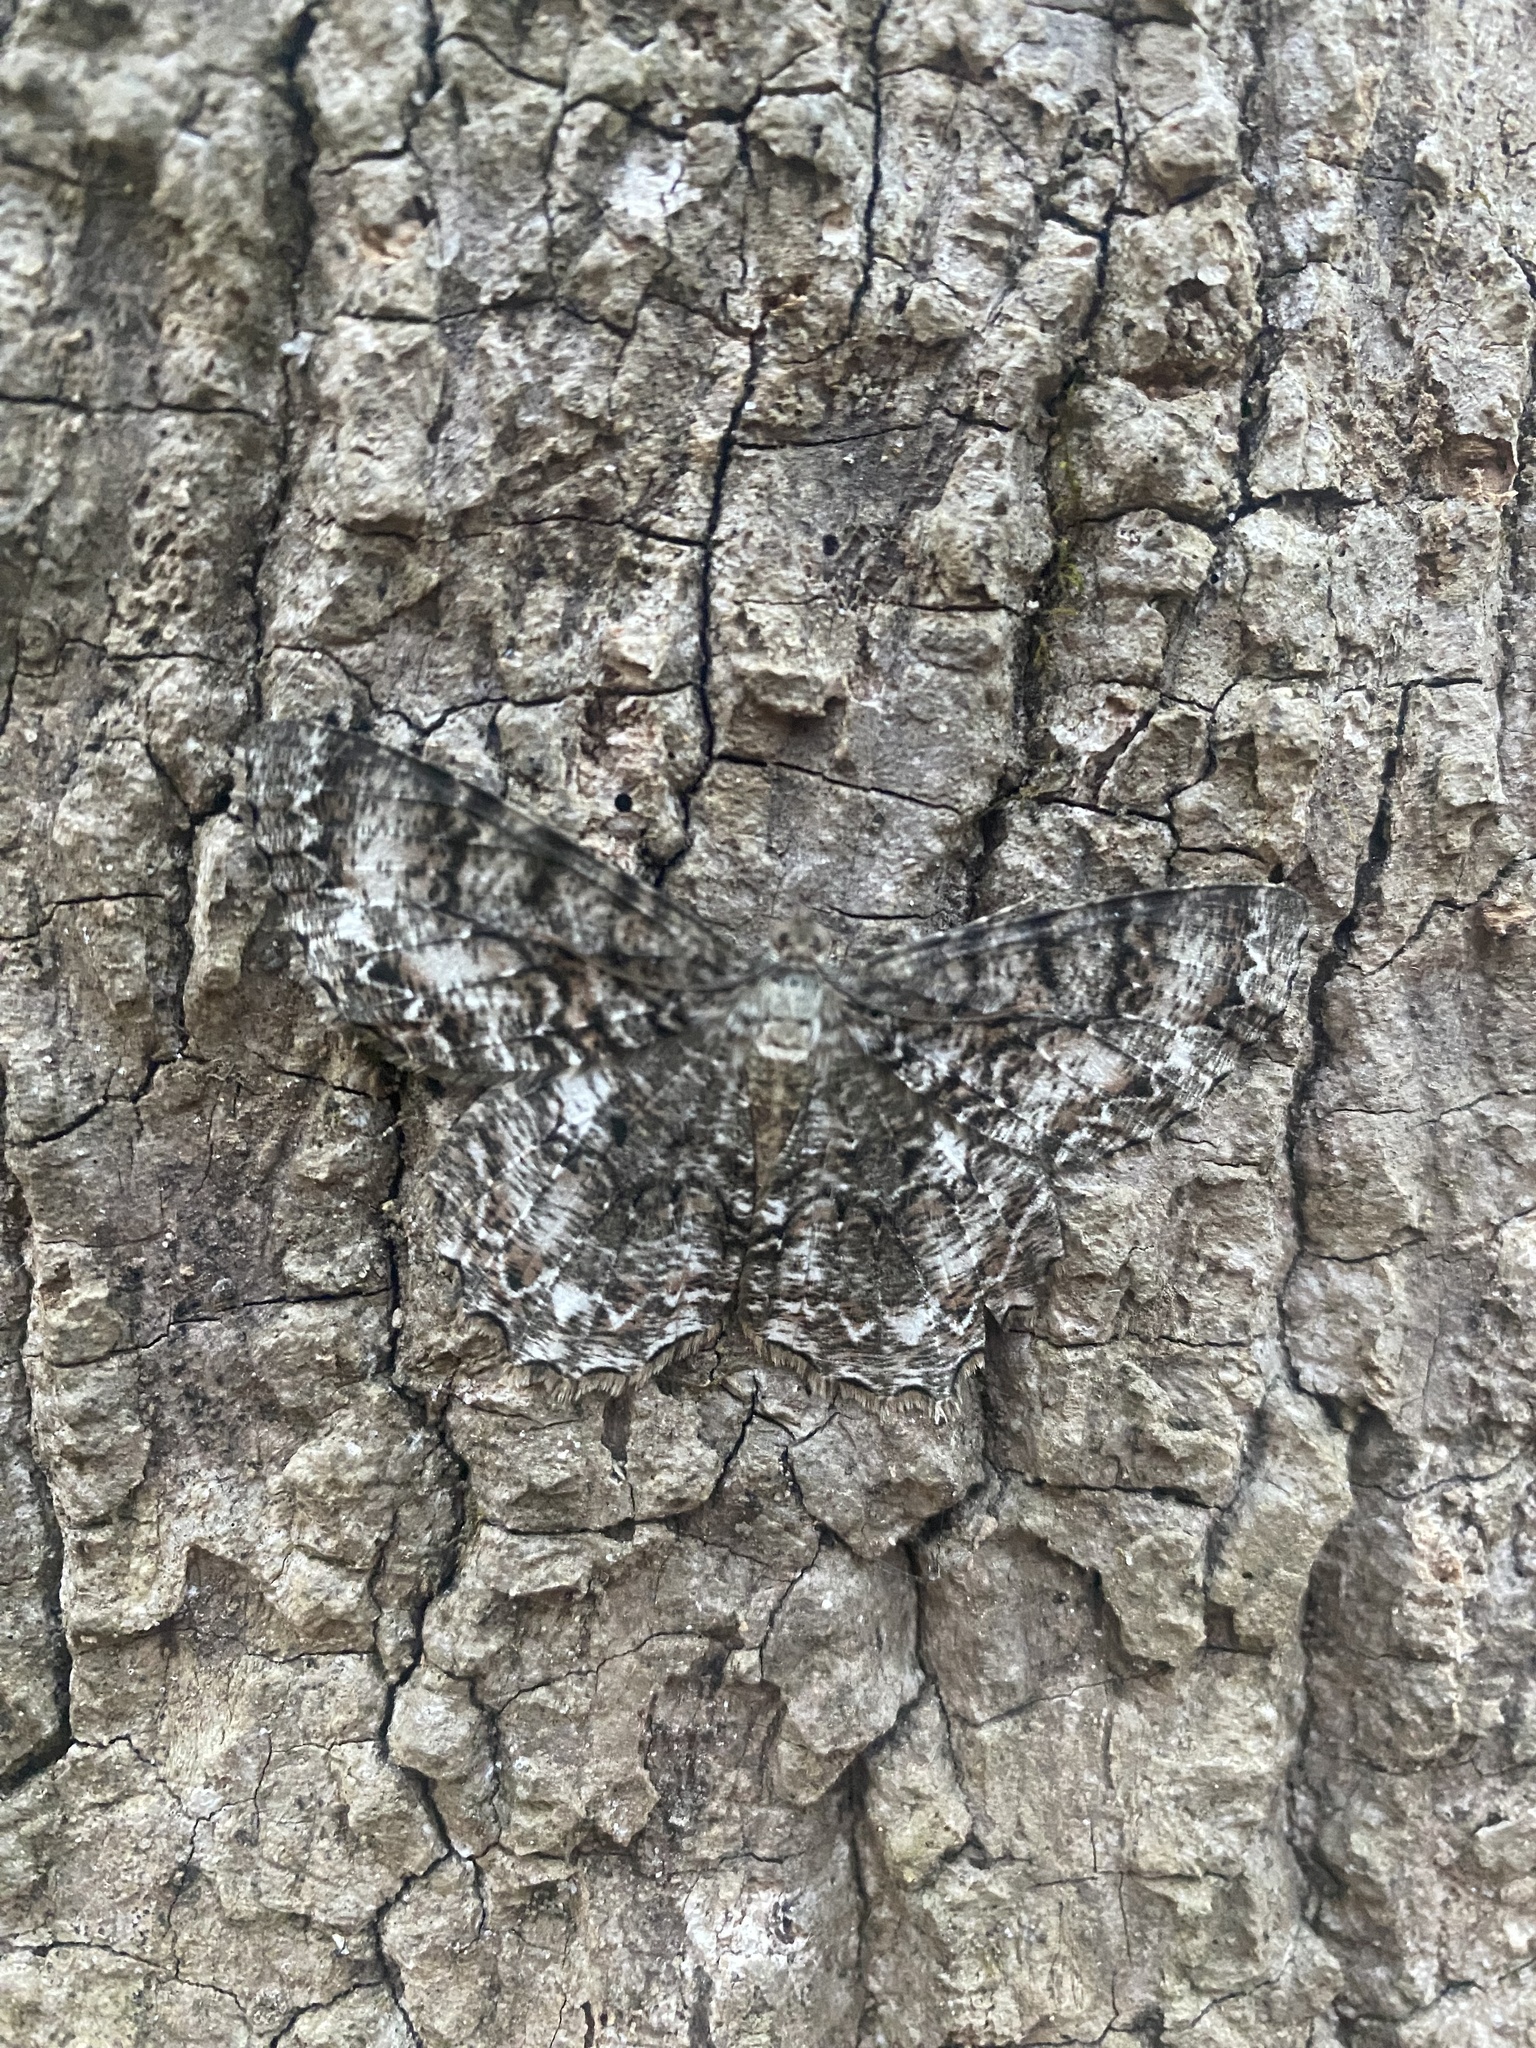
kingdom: Animalia
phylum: Arthropoda
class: Insecta
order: Lepidoptera
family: Geometridae
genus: Epimecis
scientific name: Epimecis hortaria
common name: Tulip-tree beauty
